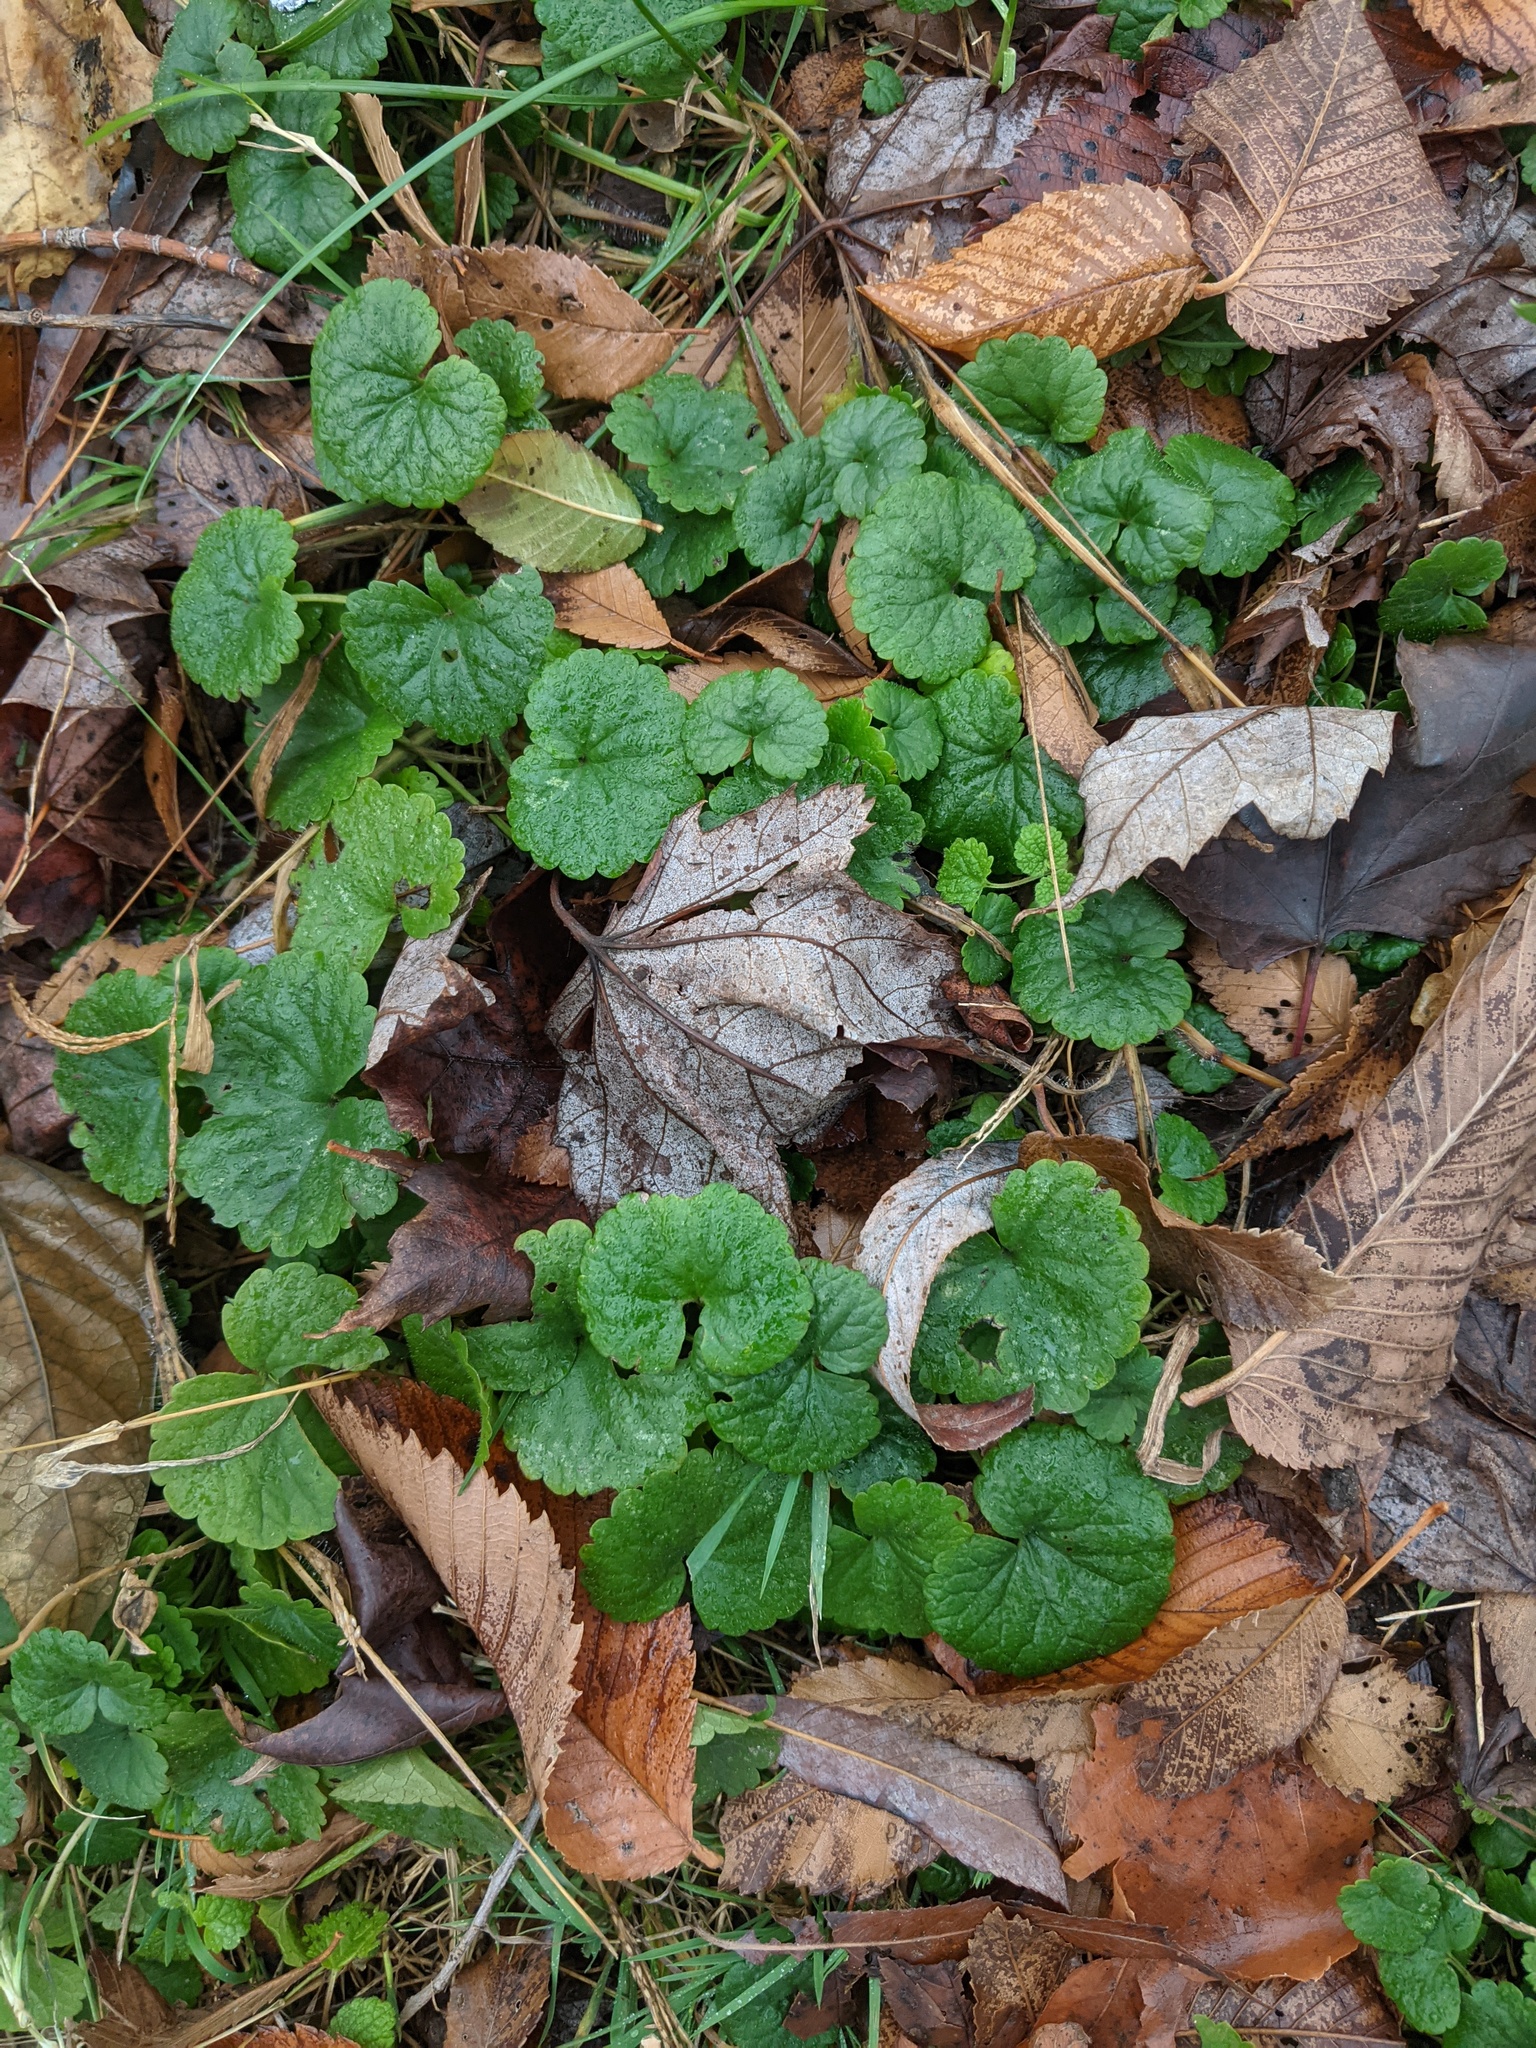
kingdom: Plantae
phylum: Tracheophyta
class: Magnoliopsida
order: Lamiales
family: Lamiaceae
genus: Glechoma
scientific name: Glechoma hederacea
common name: Ground ivy
